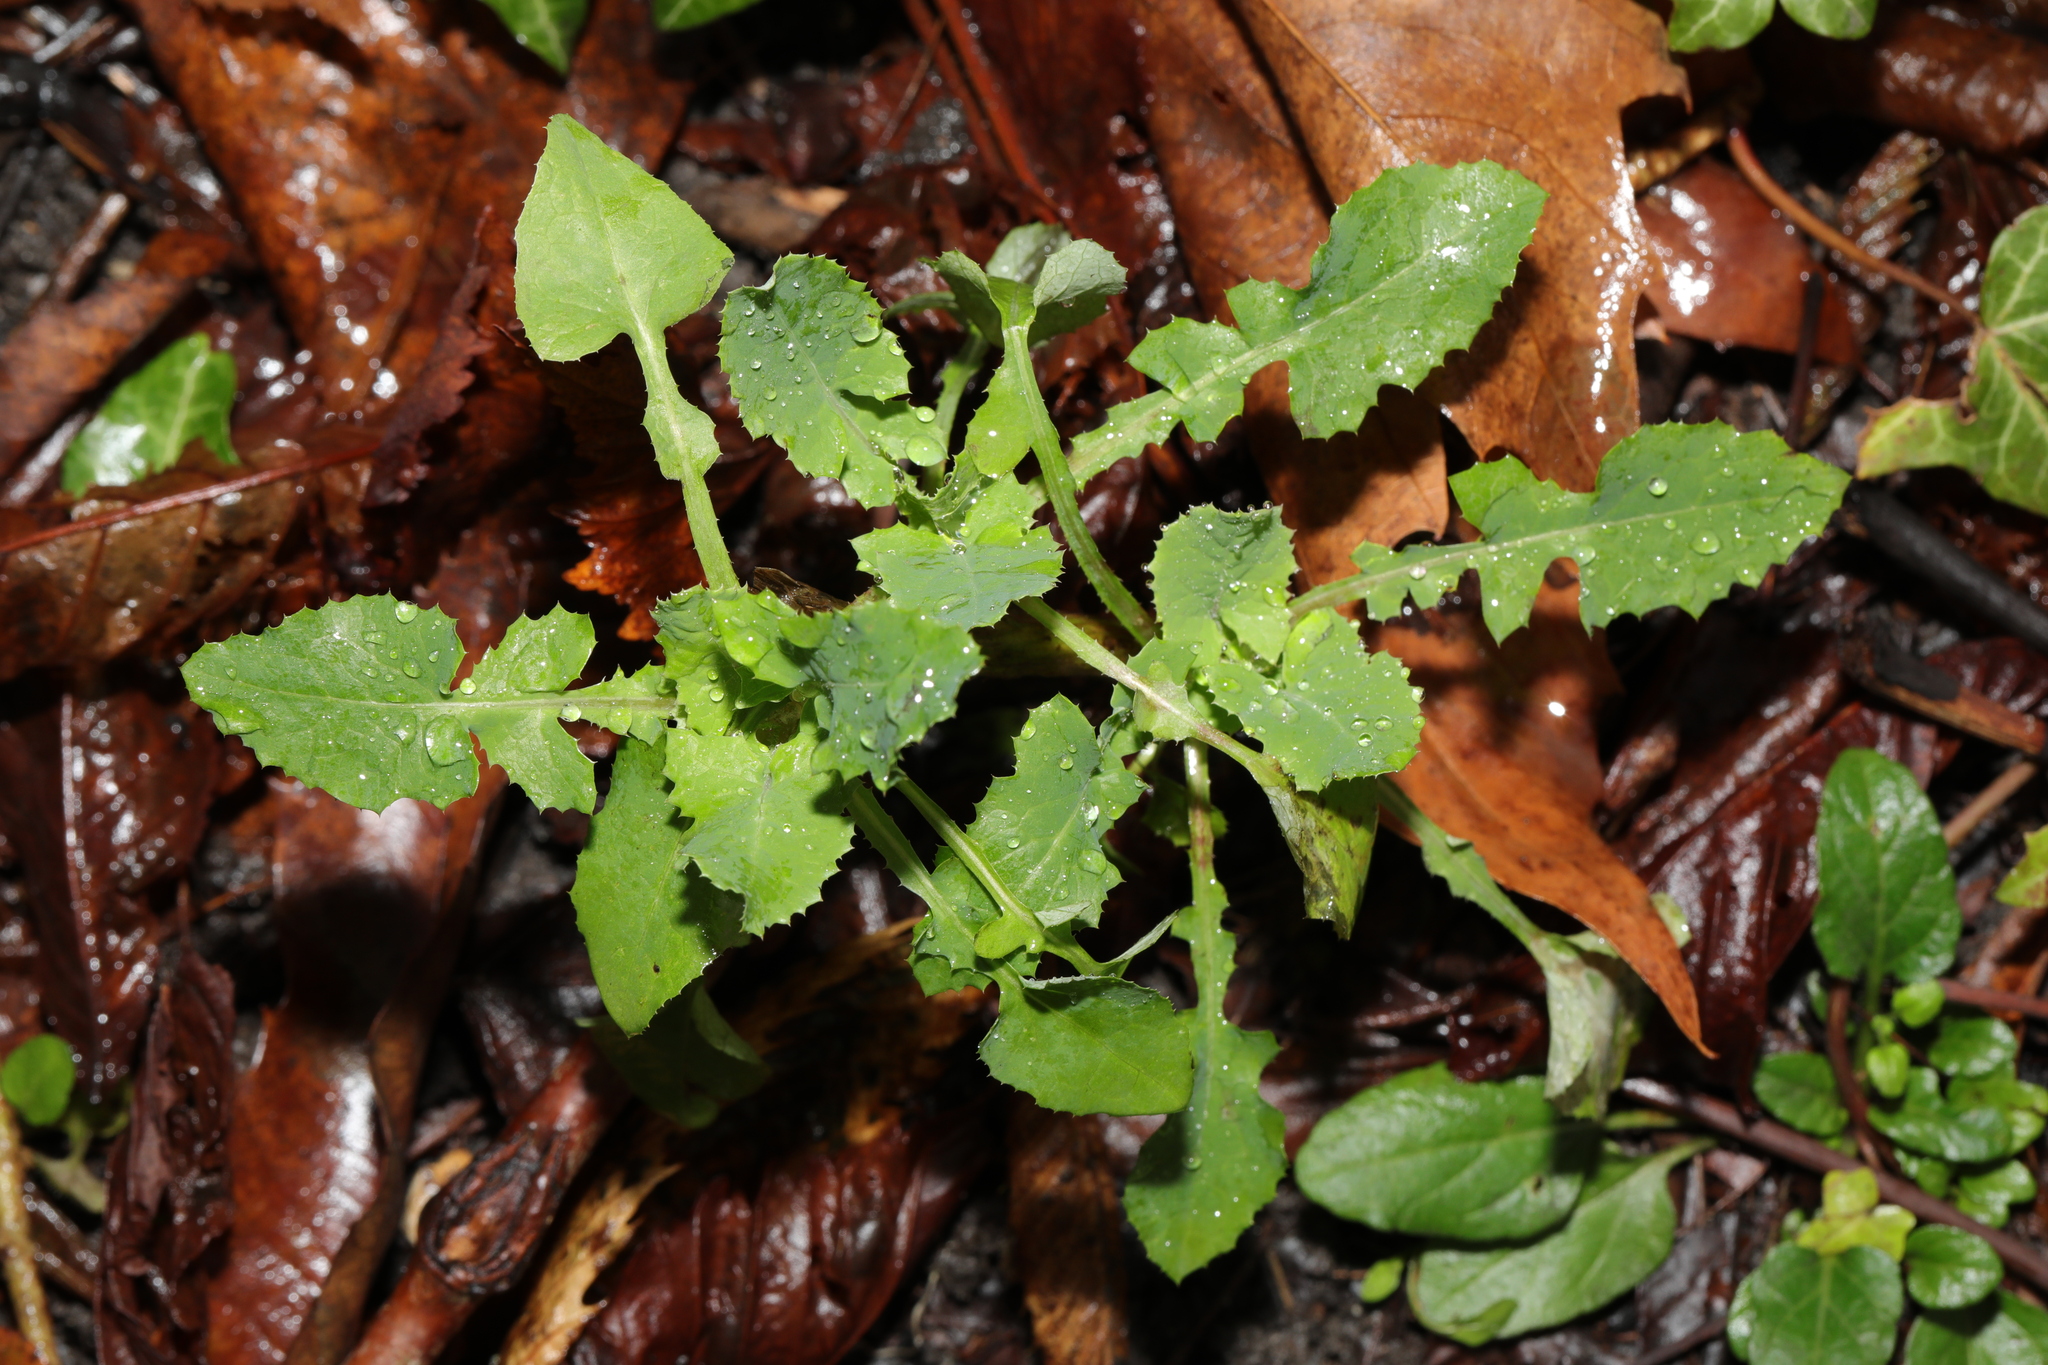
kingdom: Plantae
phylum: Tracheophyta
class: Magnoliopsida
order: Asterales
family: Asteraceae
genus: Sonchus
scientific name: Sonchus oleraceus
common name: Common sowthistle
